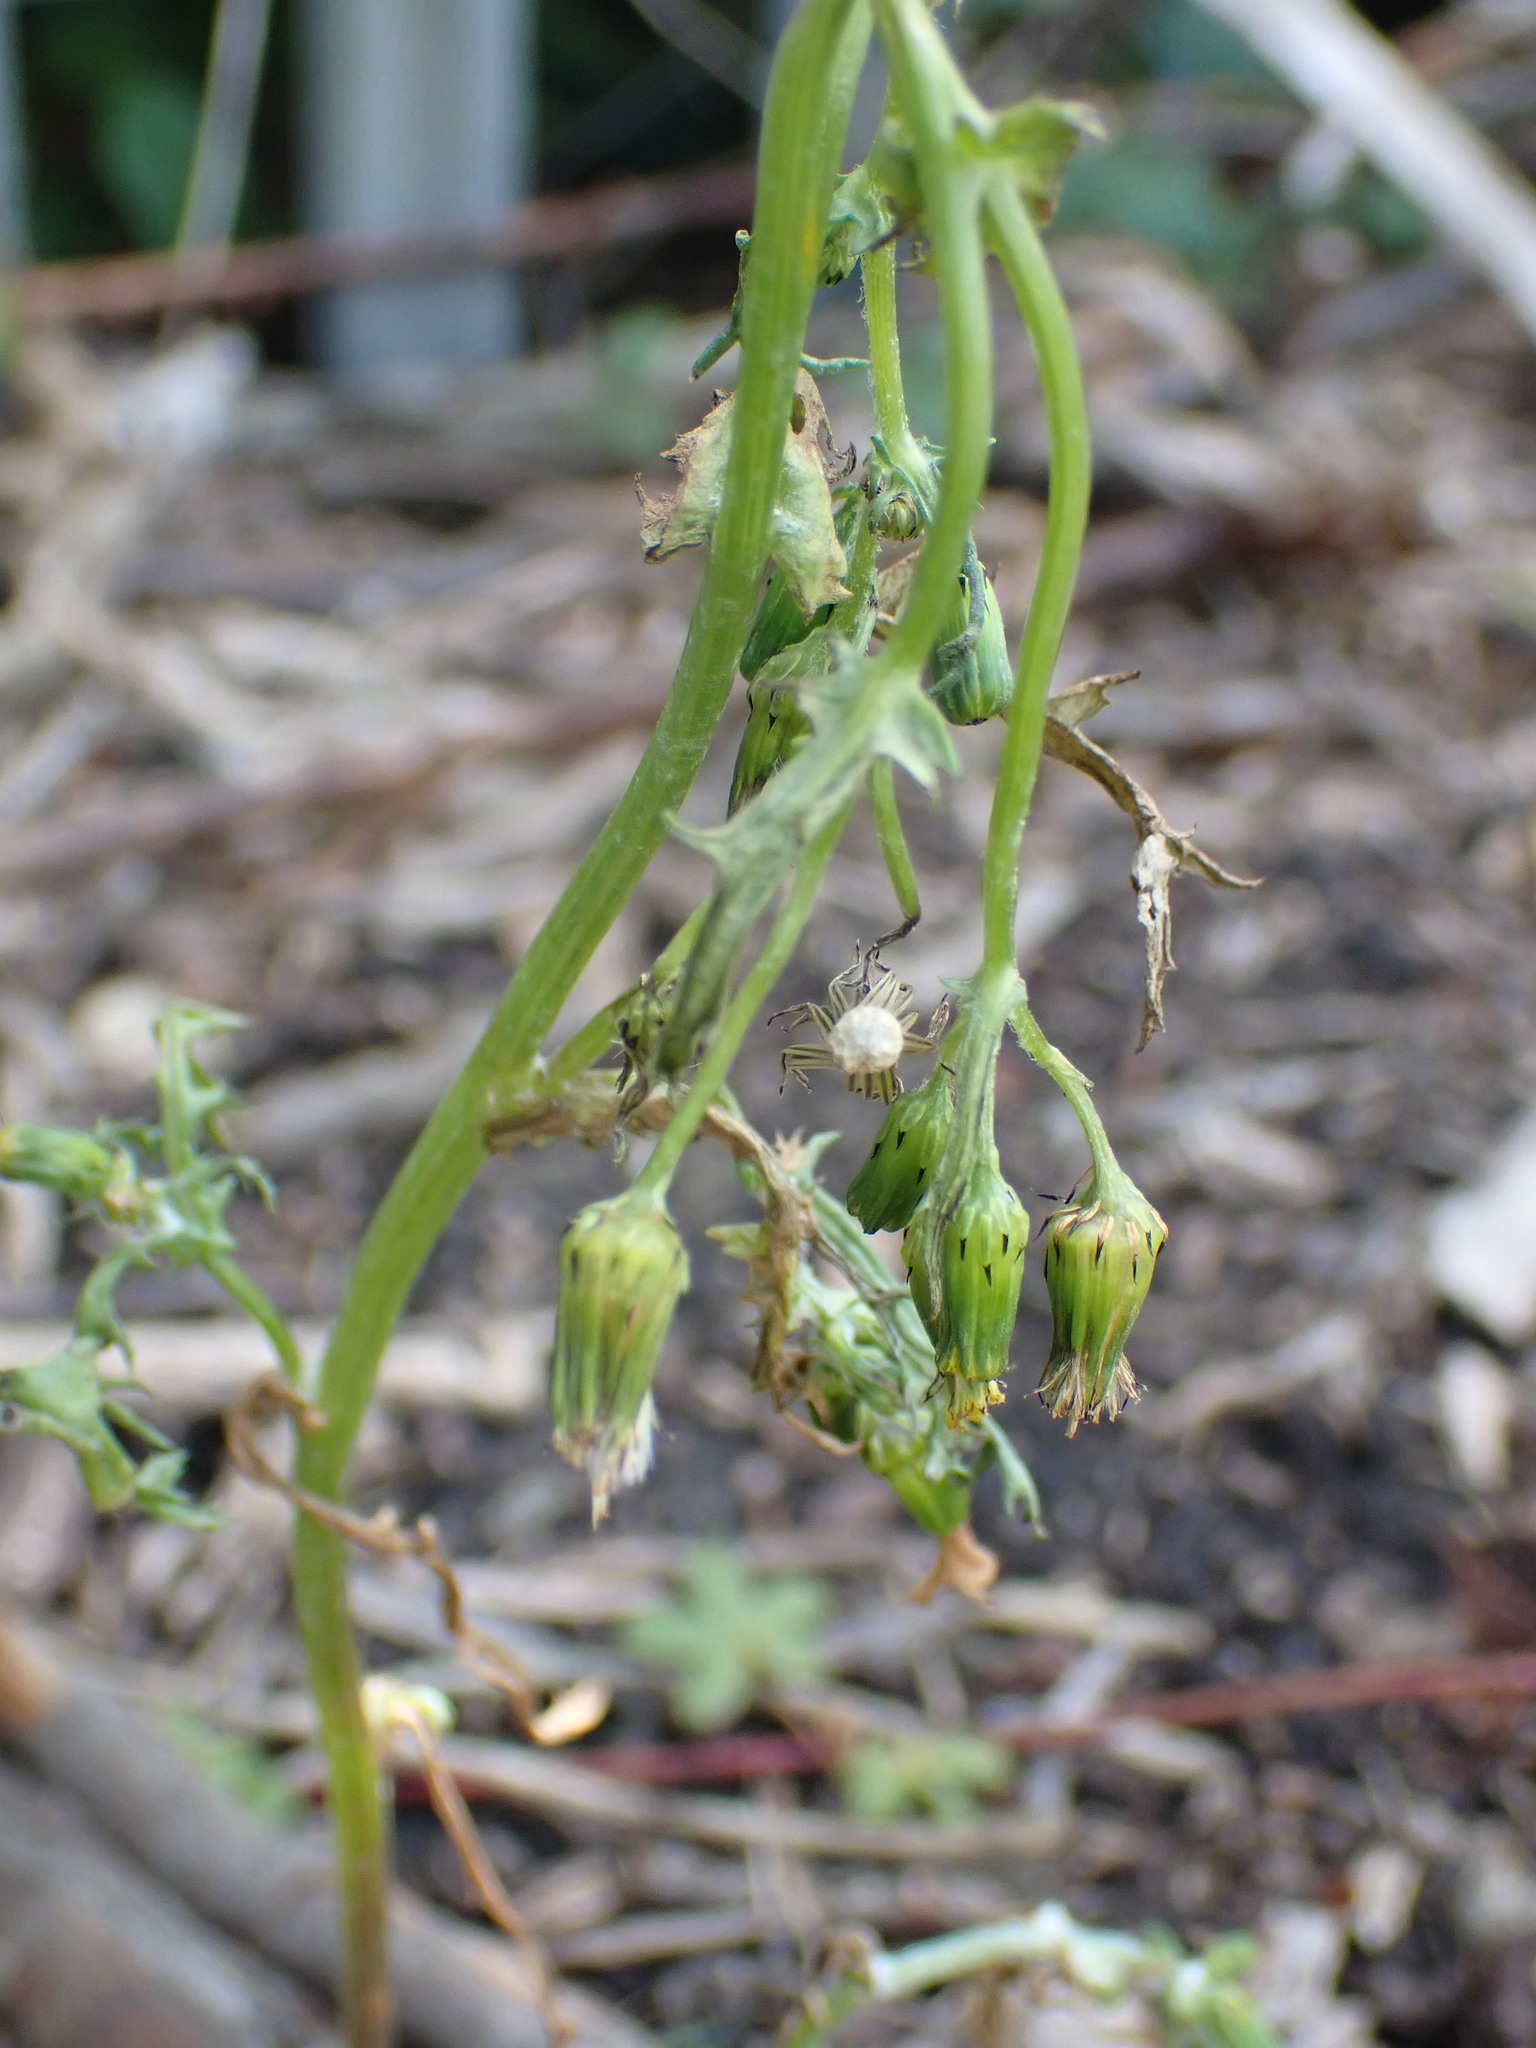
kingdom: Plantae
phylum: Tracheophyta
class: Magnoliopsida
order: Asterales
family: Asteraceae
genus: Senecio
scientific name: Senecio vulgaris
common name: Old-man-in-the-spring
